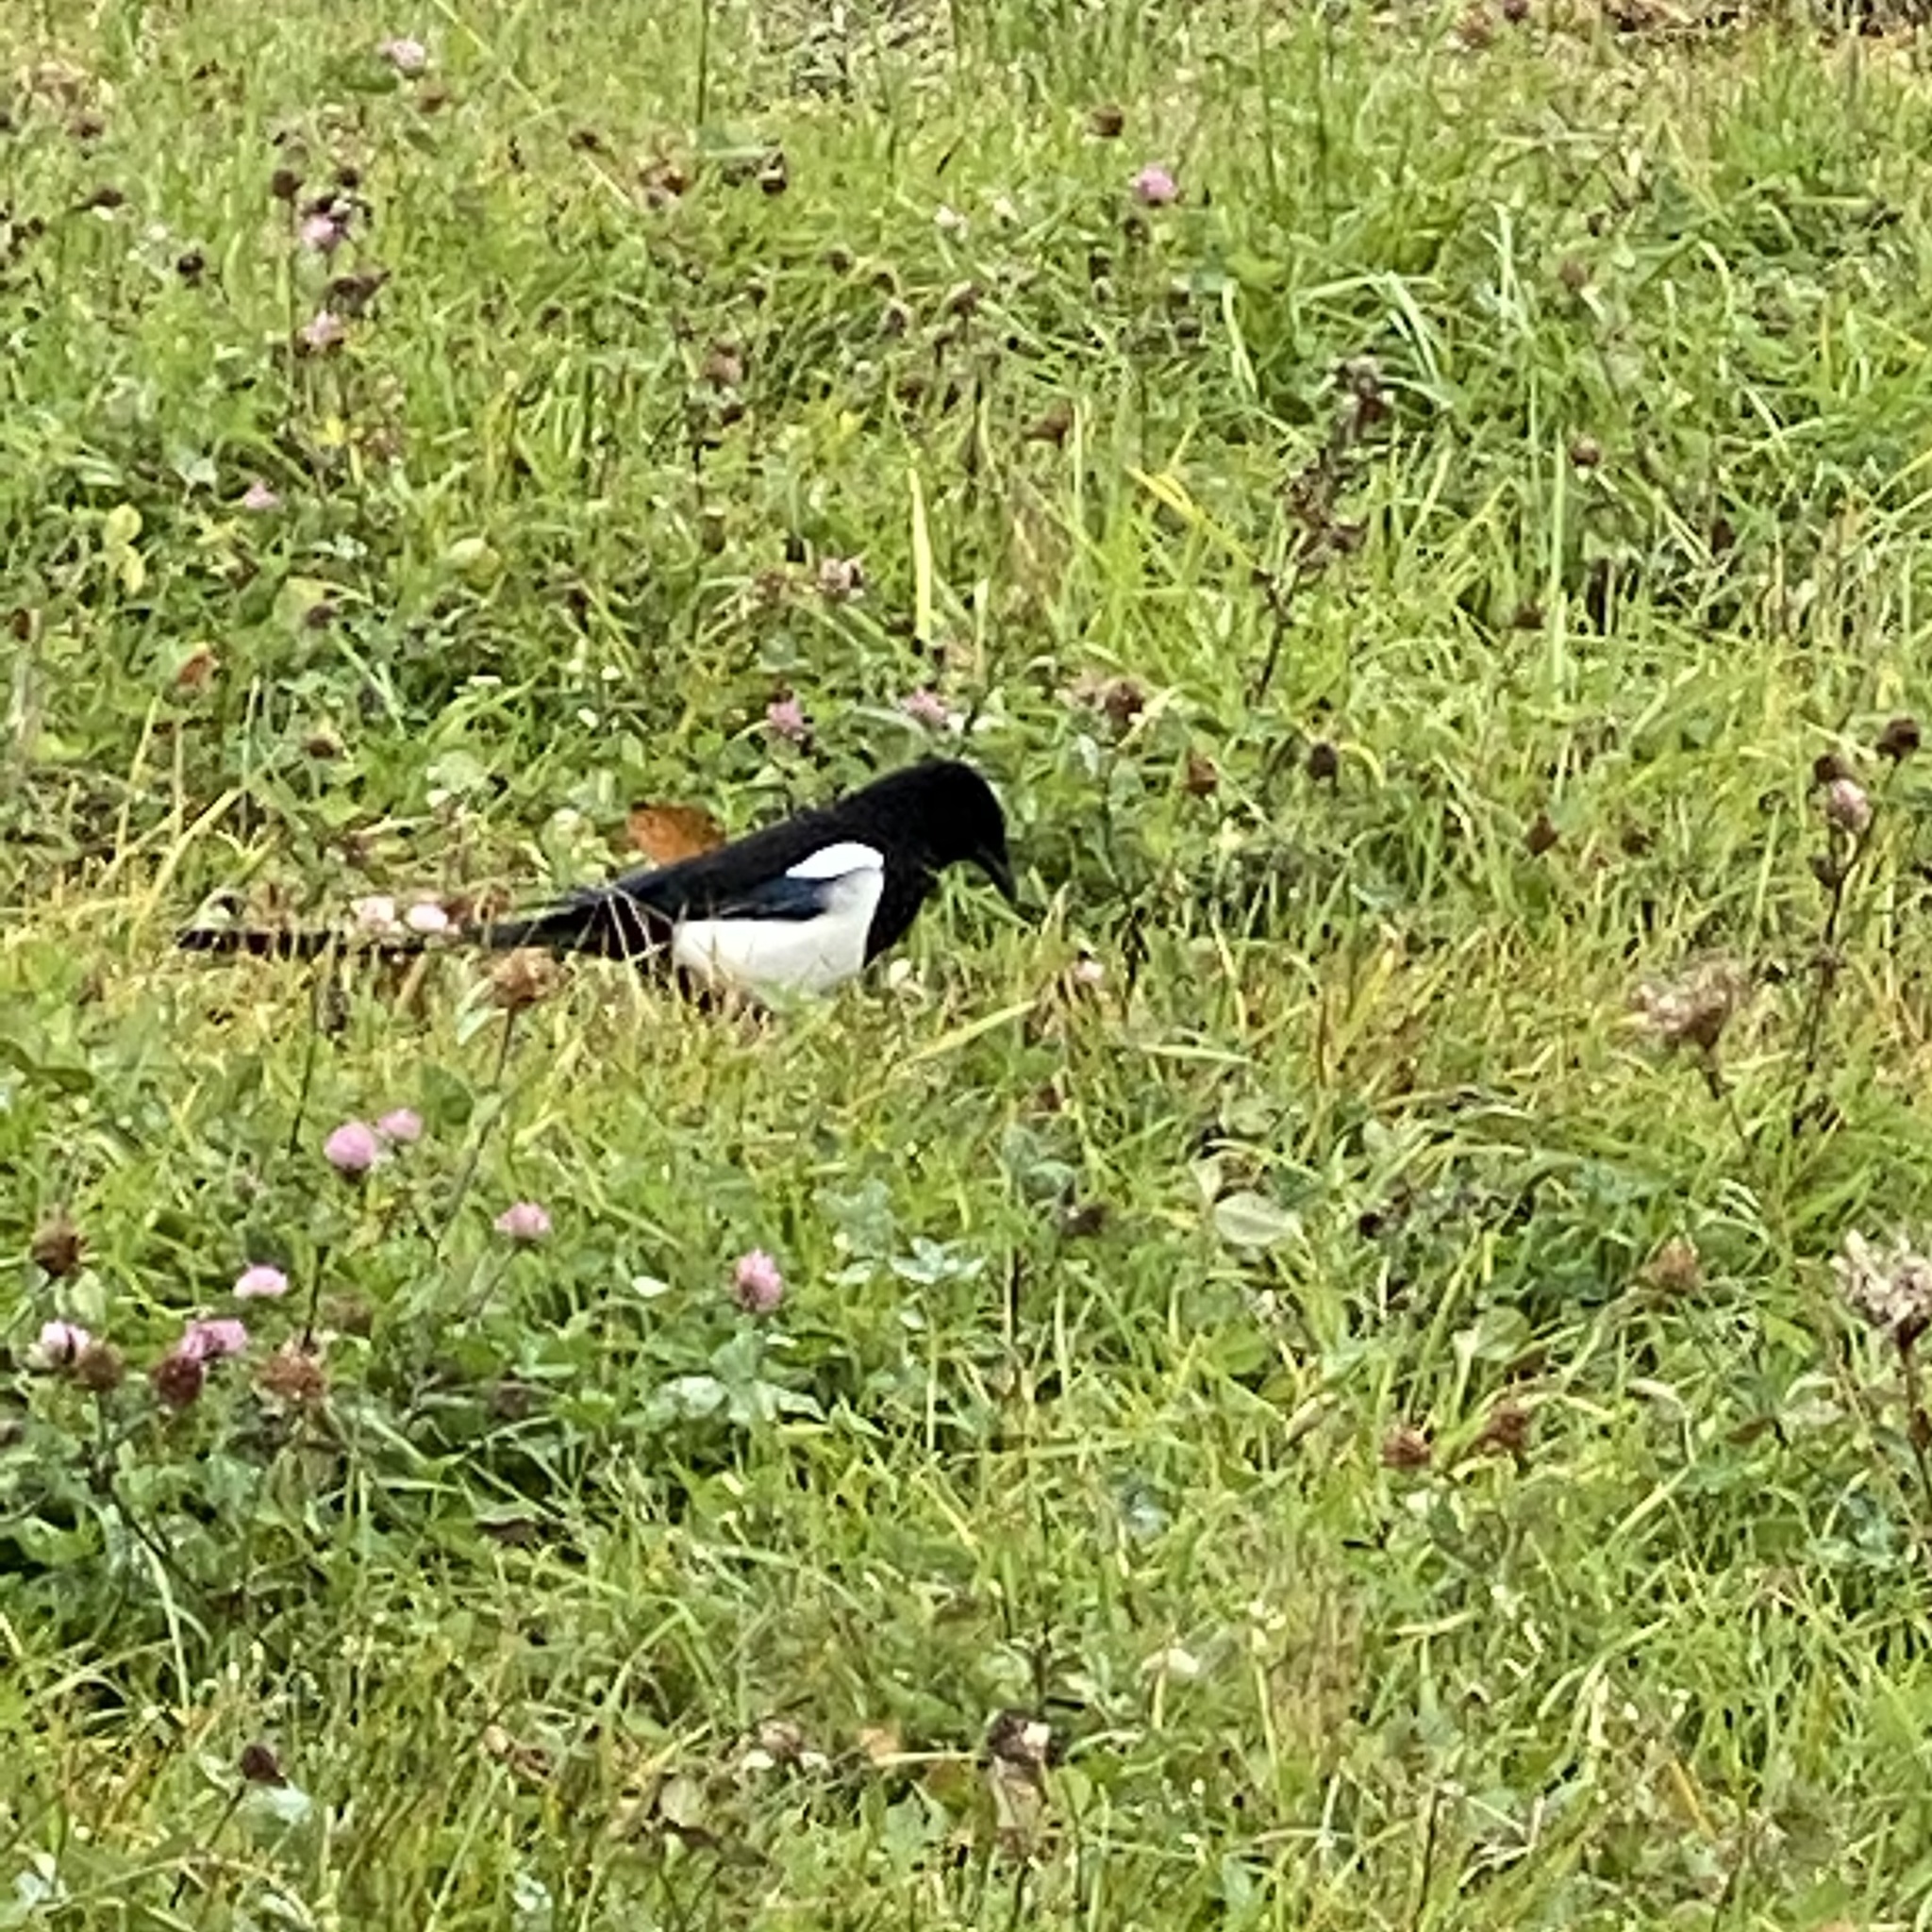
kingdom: Animalia
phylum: Chordata
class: Aves
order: Passeriformes
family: Corvidae
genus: Pica
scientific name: Pica serica
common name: Oriental magpie
